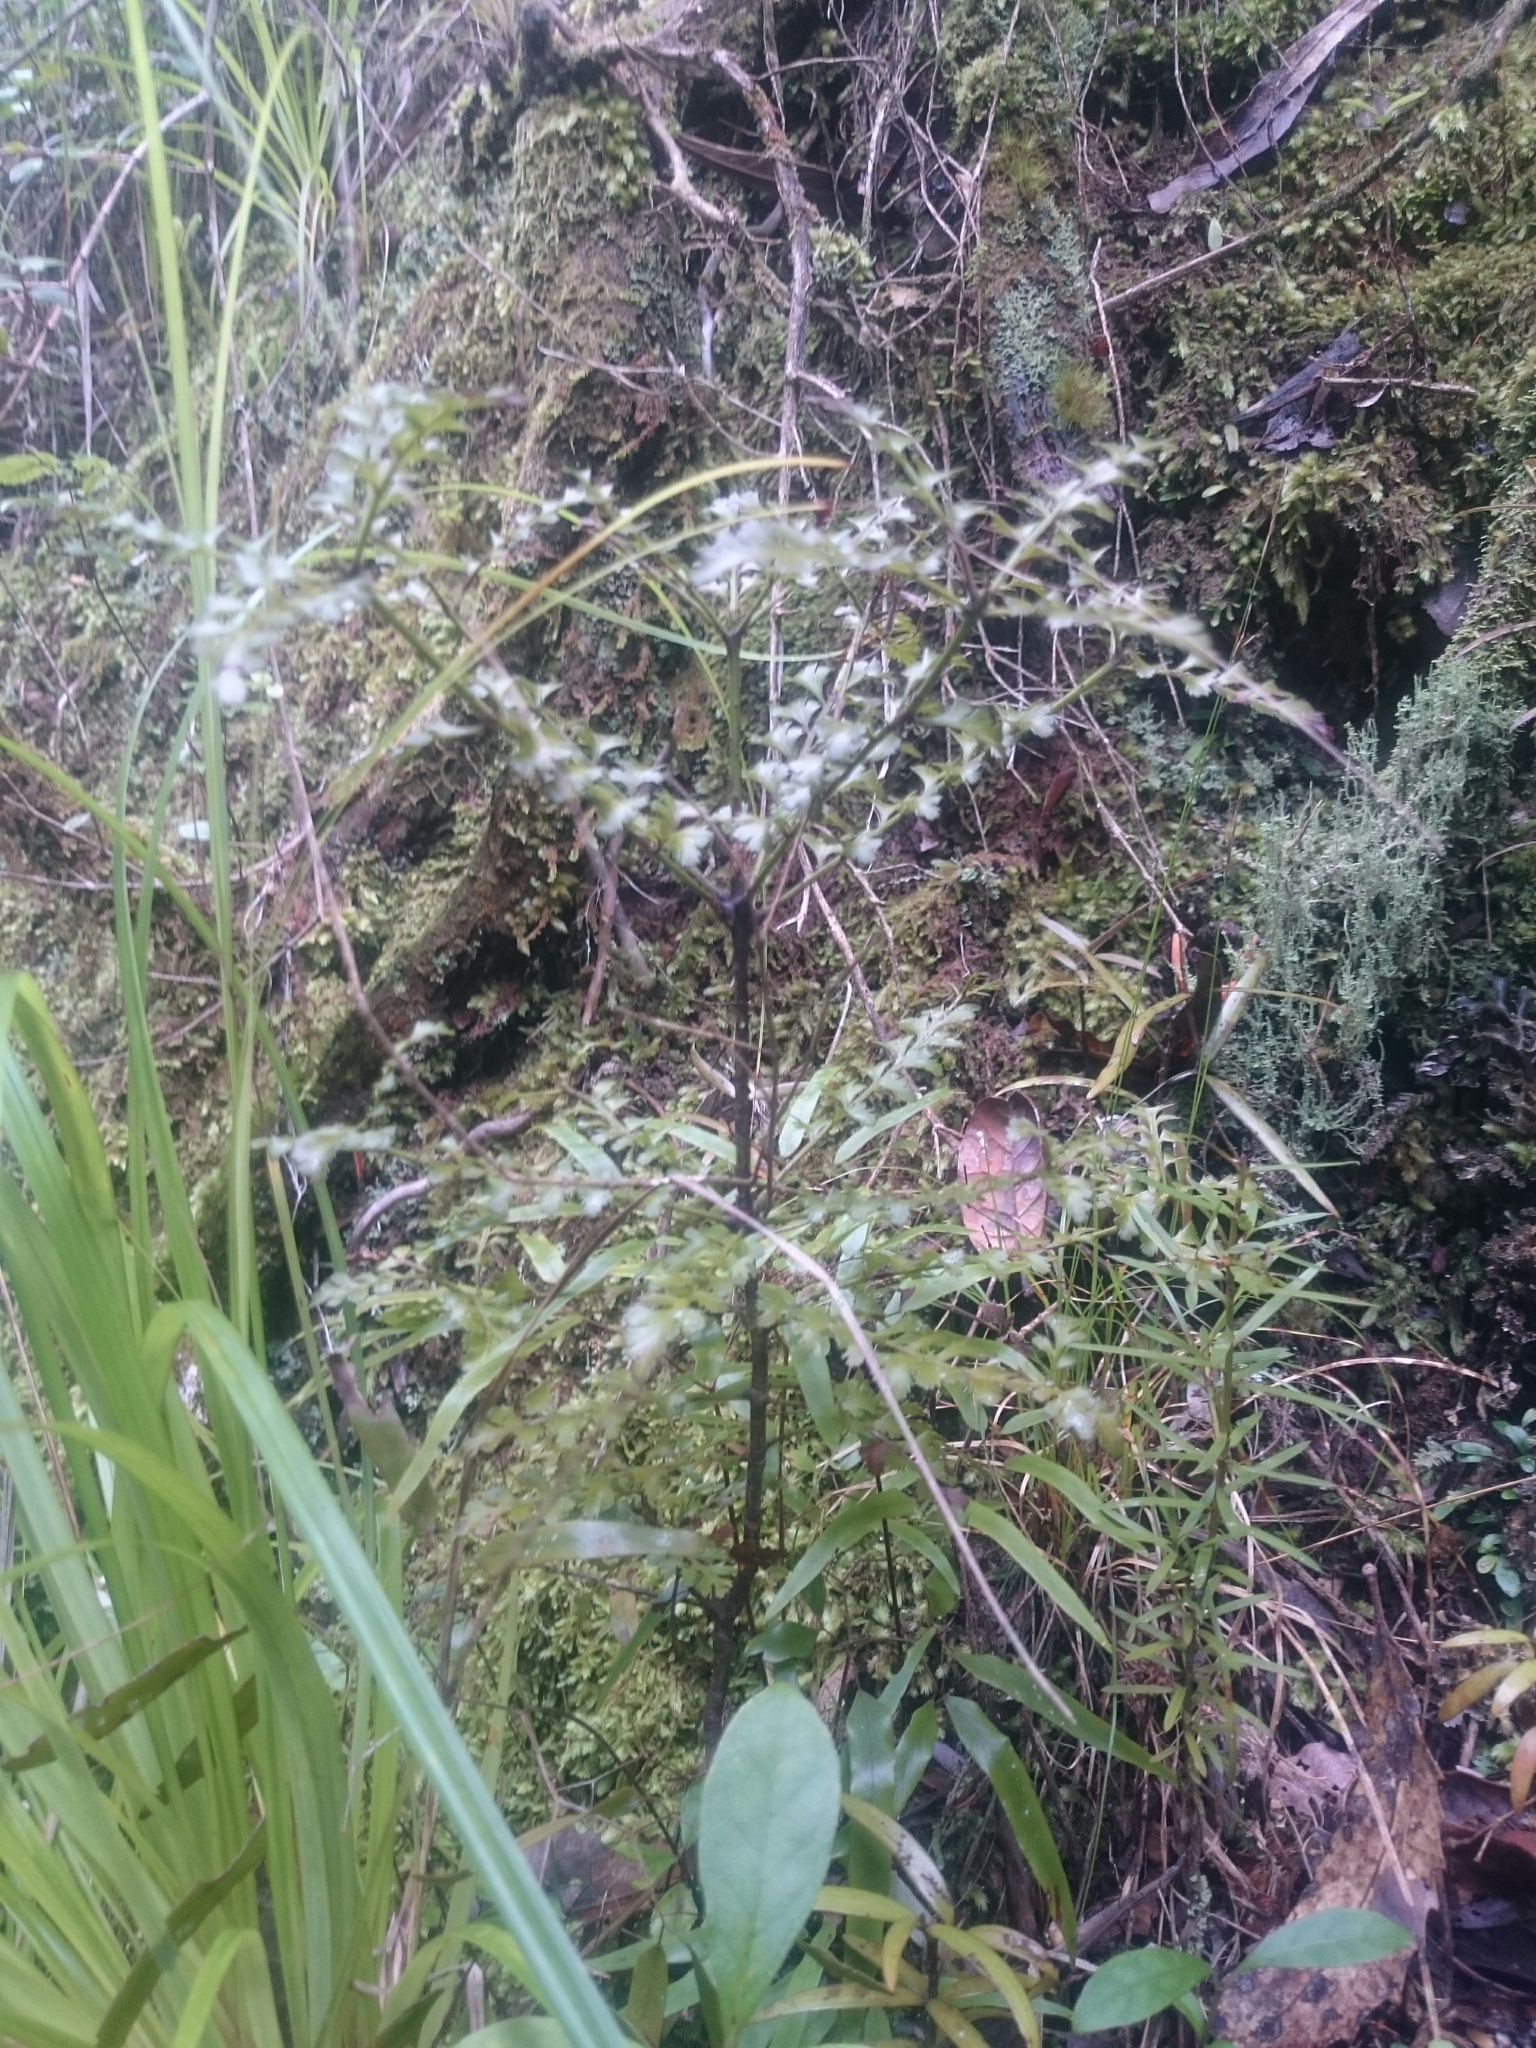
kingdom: Plantae
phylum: Tracheophyta
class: Pinopsida
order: Pinales
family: Phyllocladaceae
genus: Phyllocladus
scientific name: Phyllocladus trichomanoides
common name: Celery pine
